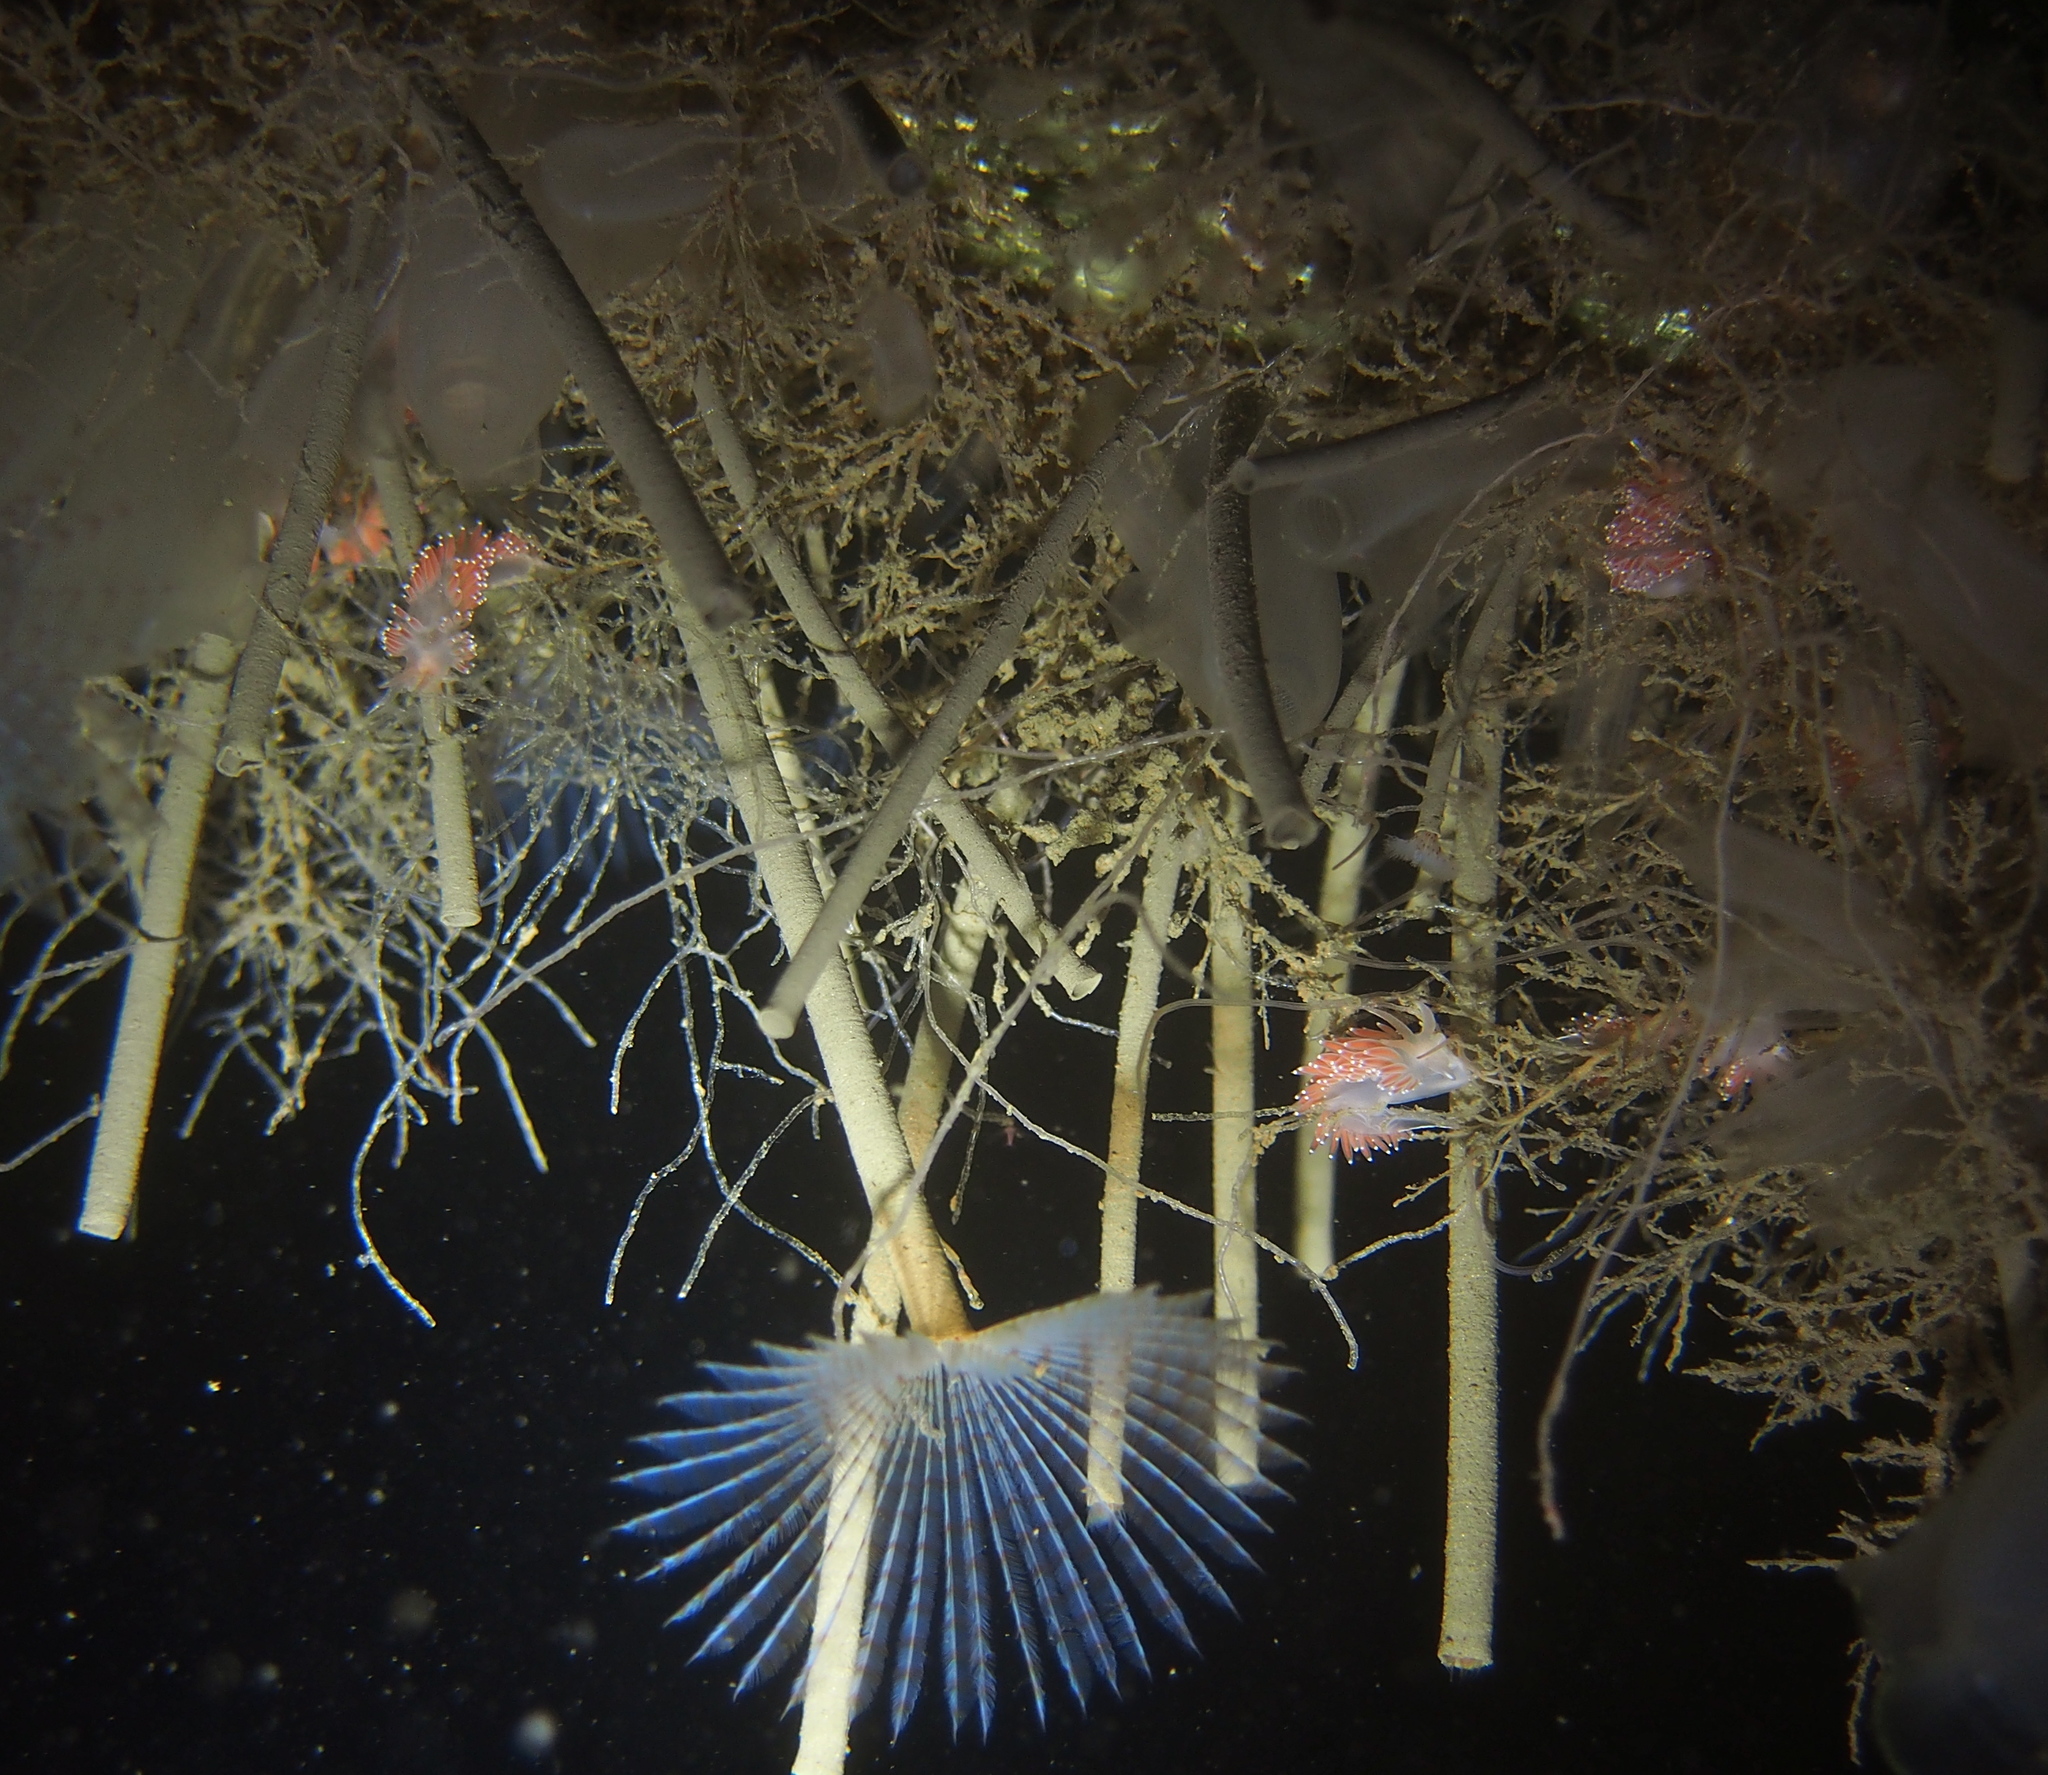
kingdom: Animalia
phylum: Mollusca
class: Gastropoda
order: Nudibranchia
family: Coryphellidae
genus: Coryphella
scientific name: Coryphella verrucosa
